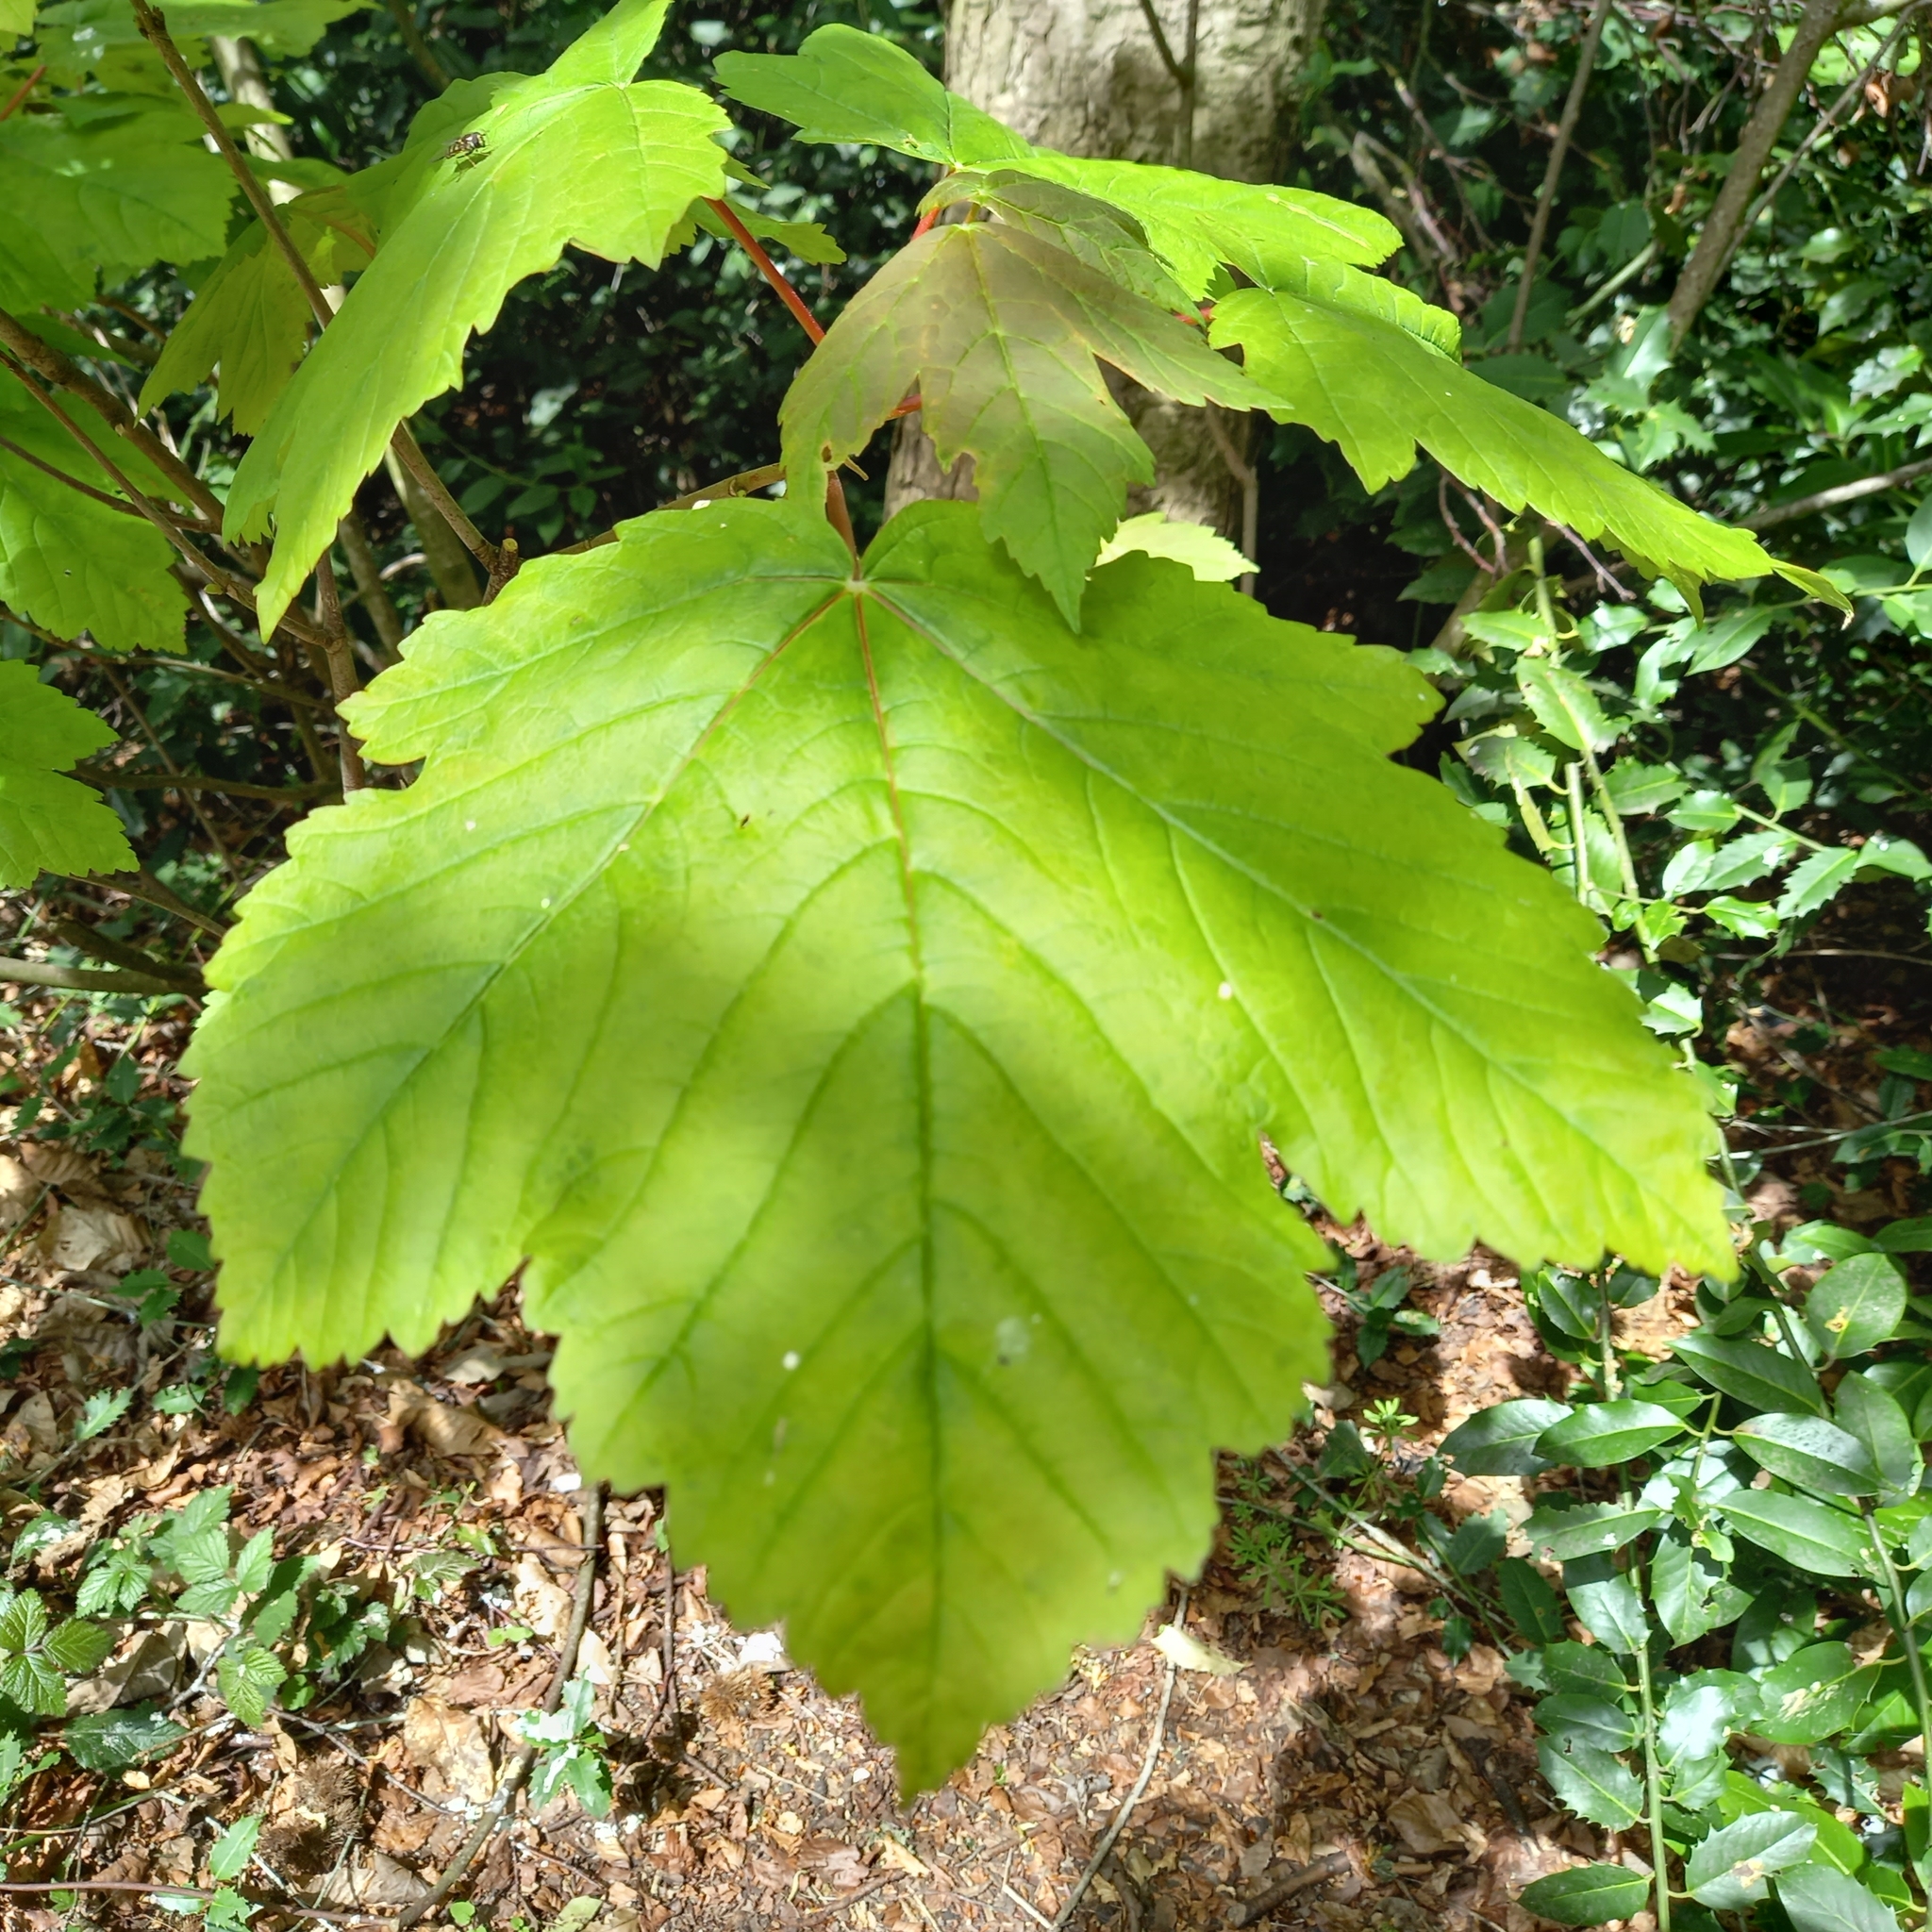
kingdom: Plantae
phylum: Tracheophyta
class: Magnoliopsida
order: Sapindales
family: Sapindaceae
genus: Acer
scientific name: Acer pseudoplatanus
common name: Sycamore
